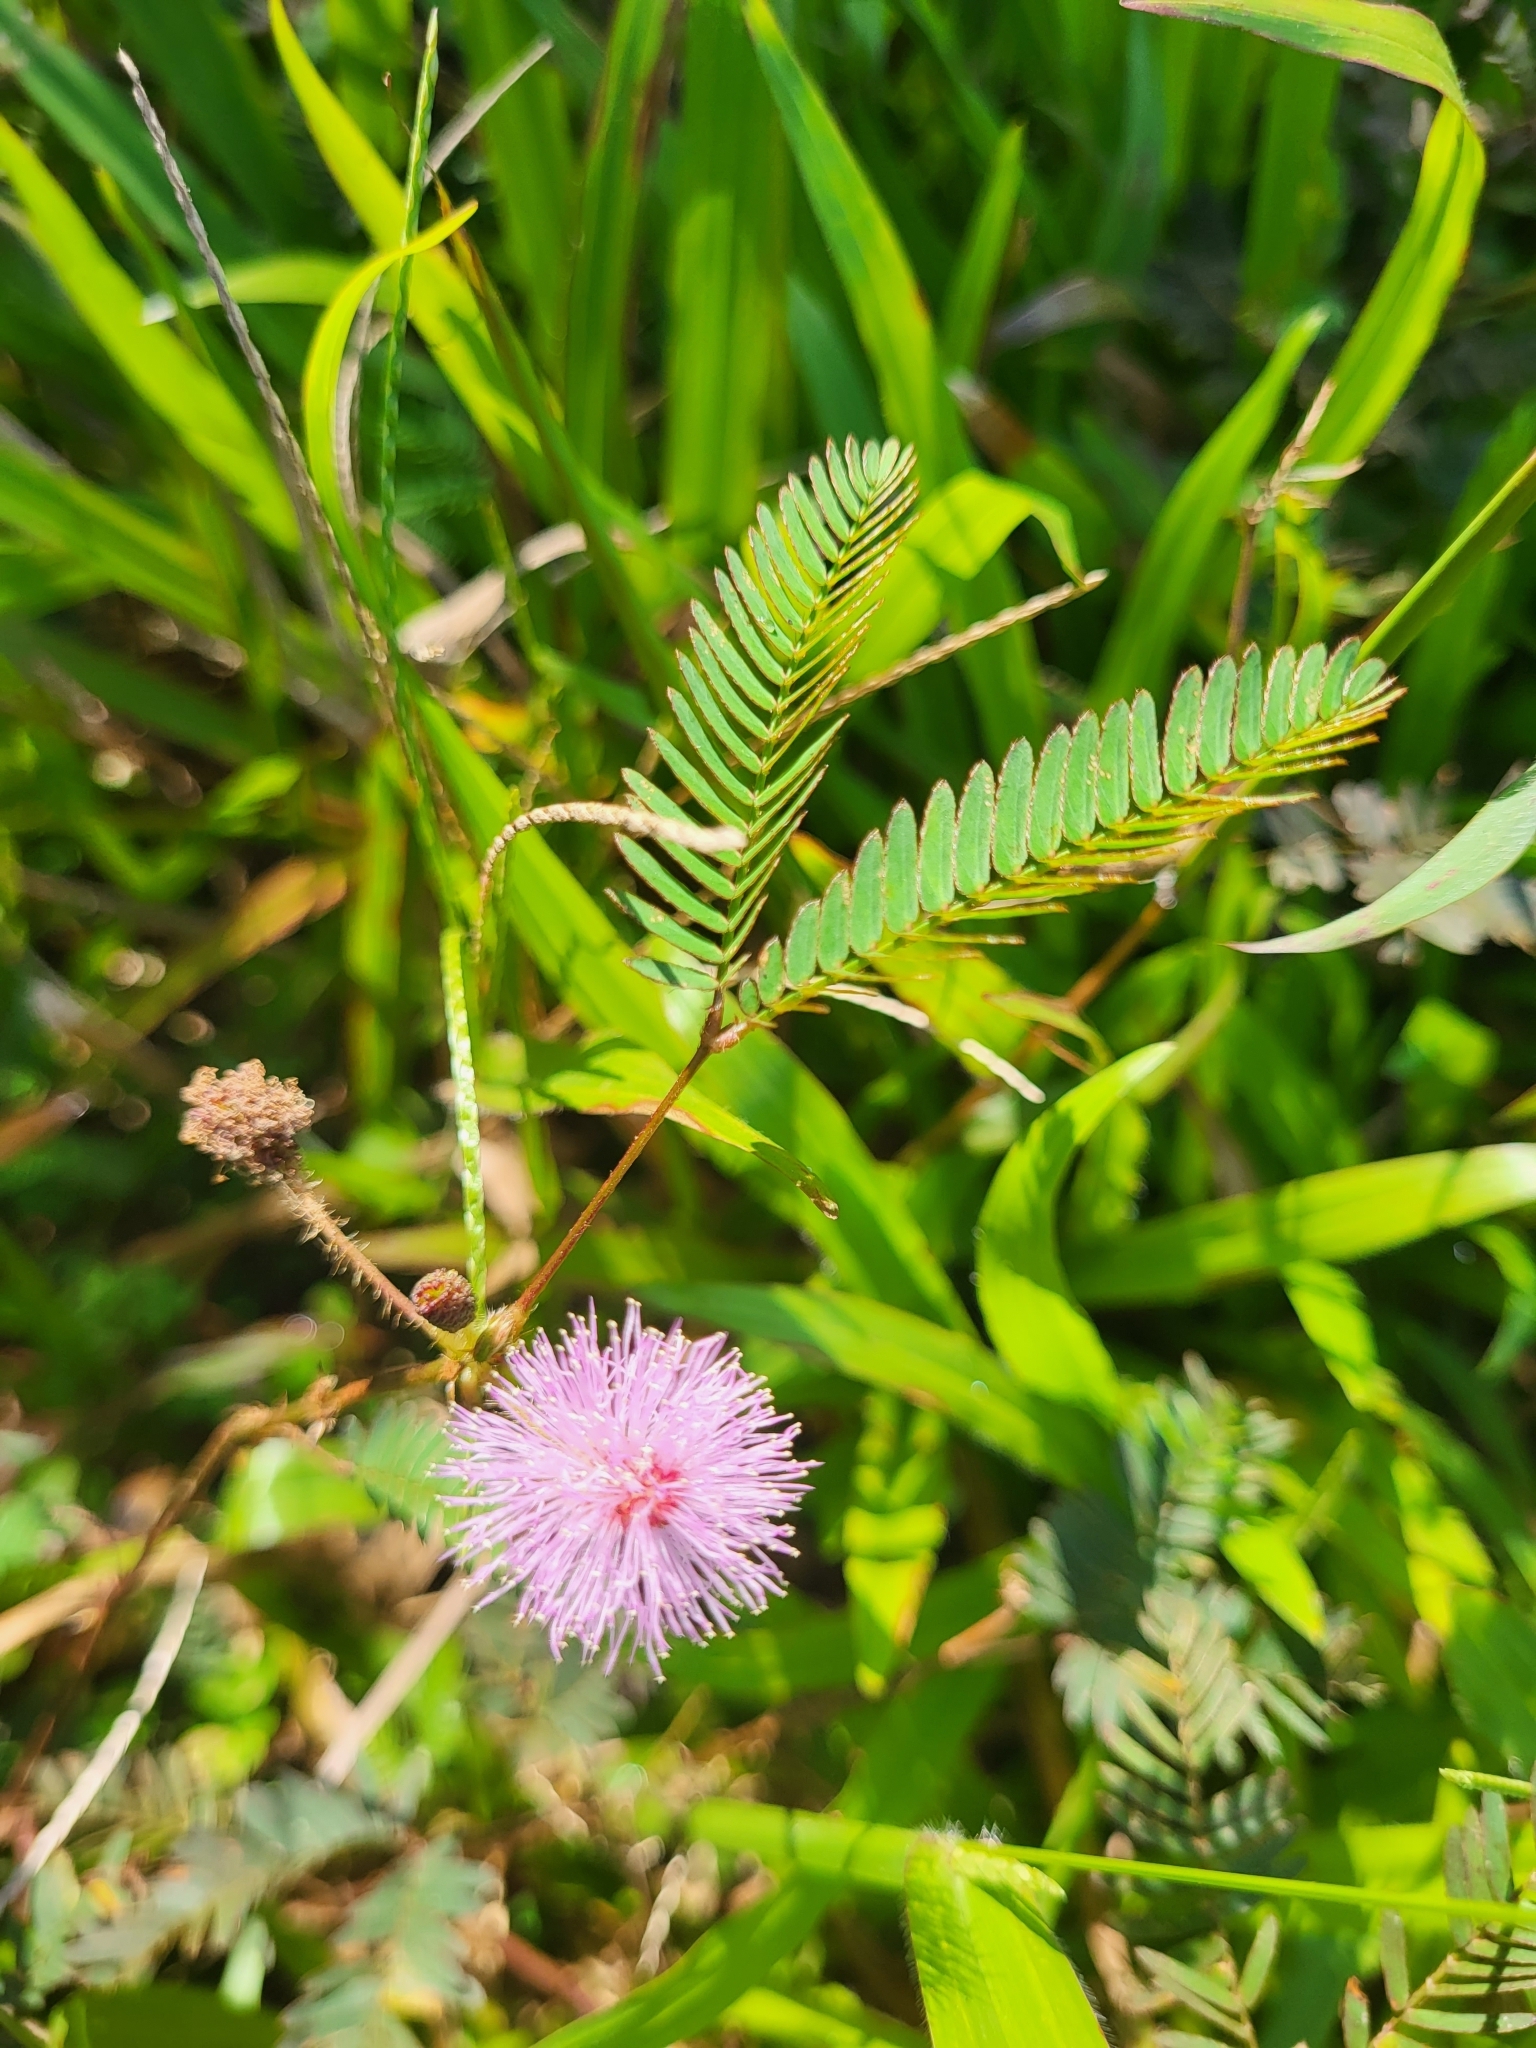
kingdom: Plantae
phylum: Tracheophyta
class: Magnoliopsida
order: Fabales
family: Fabaceae
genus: Mimosa
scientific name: Mimosa pudica
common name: Sensitive plant
